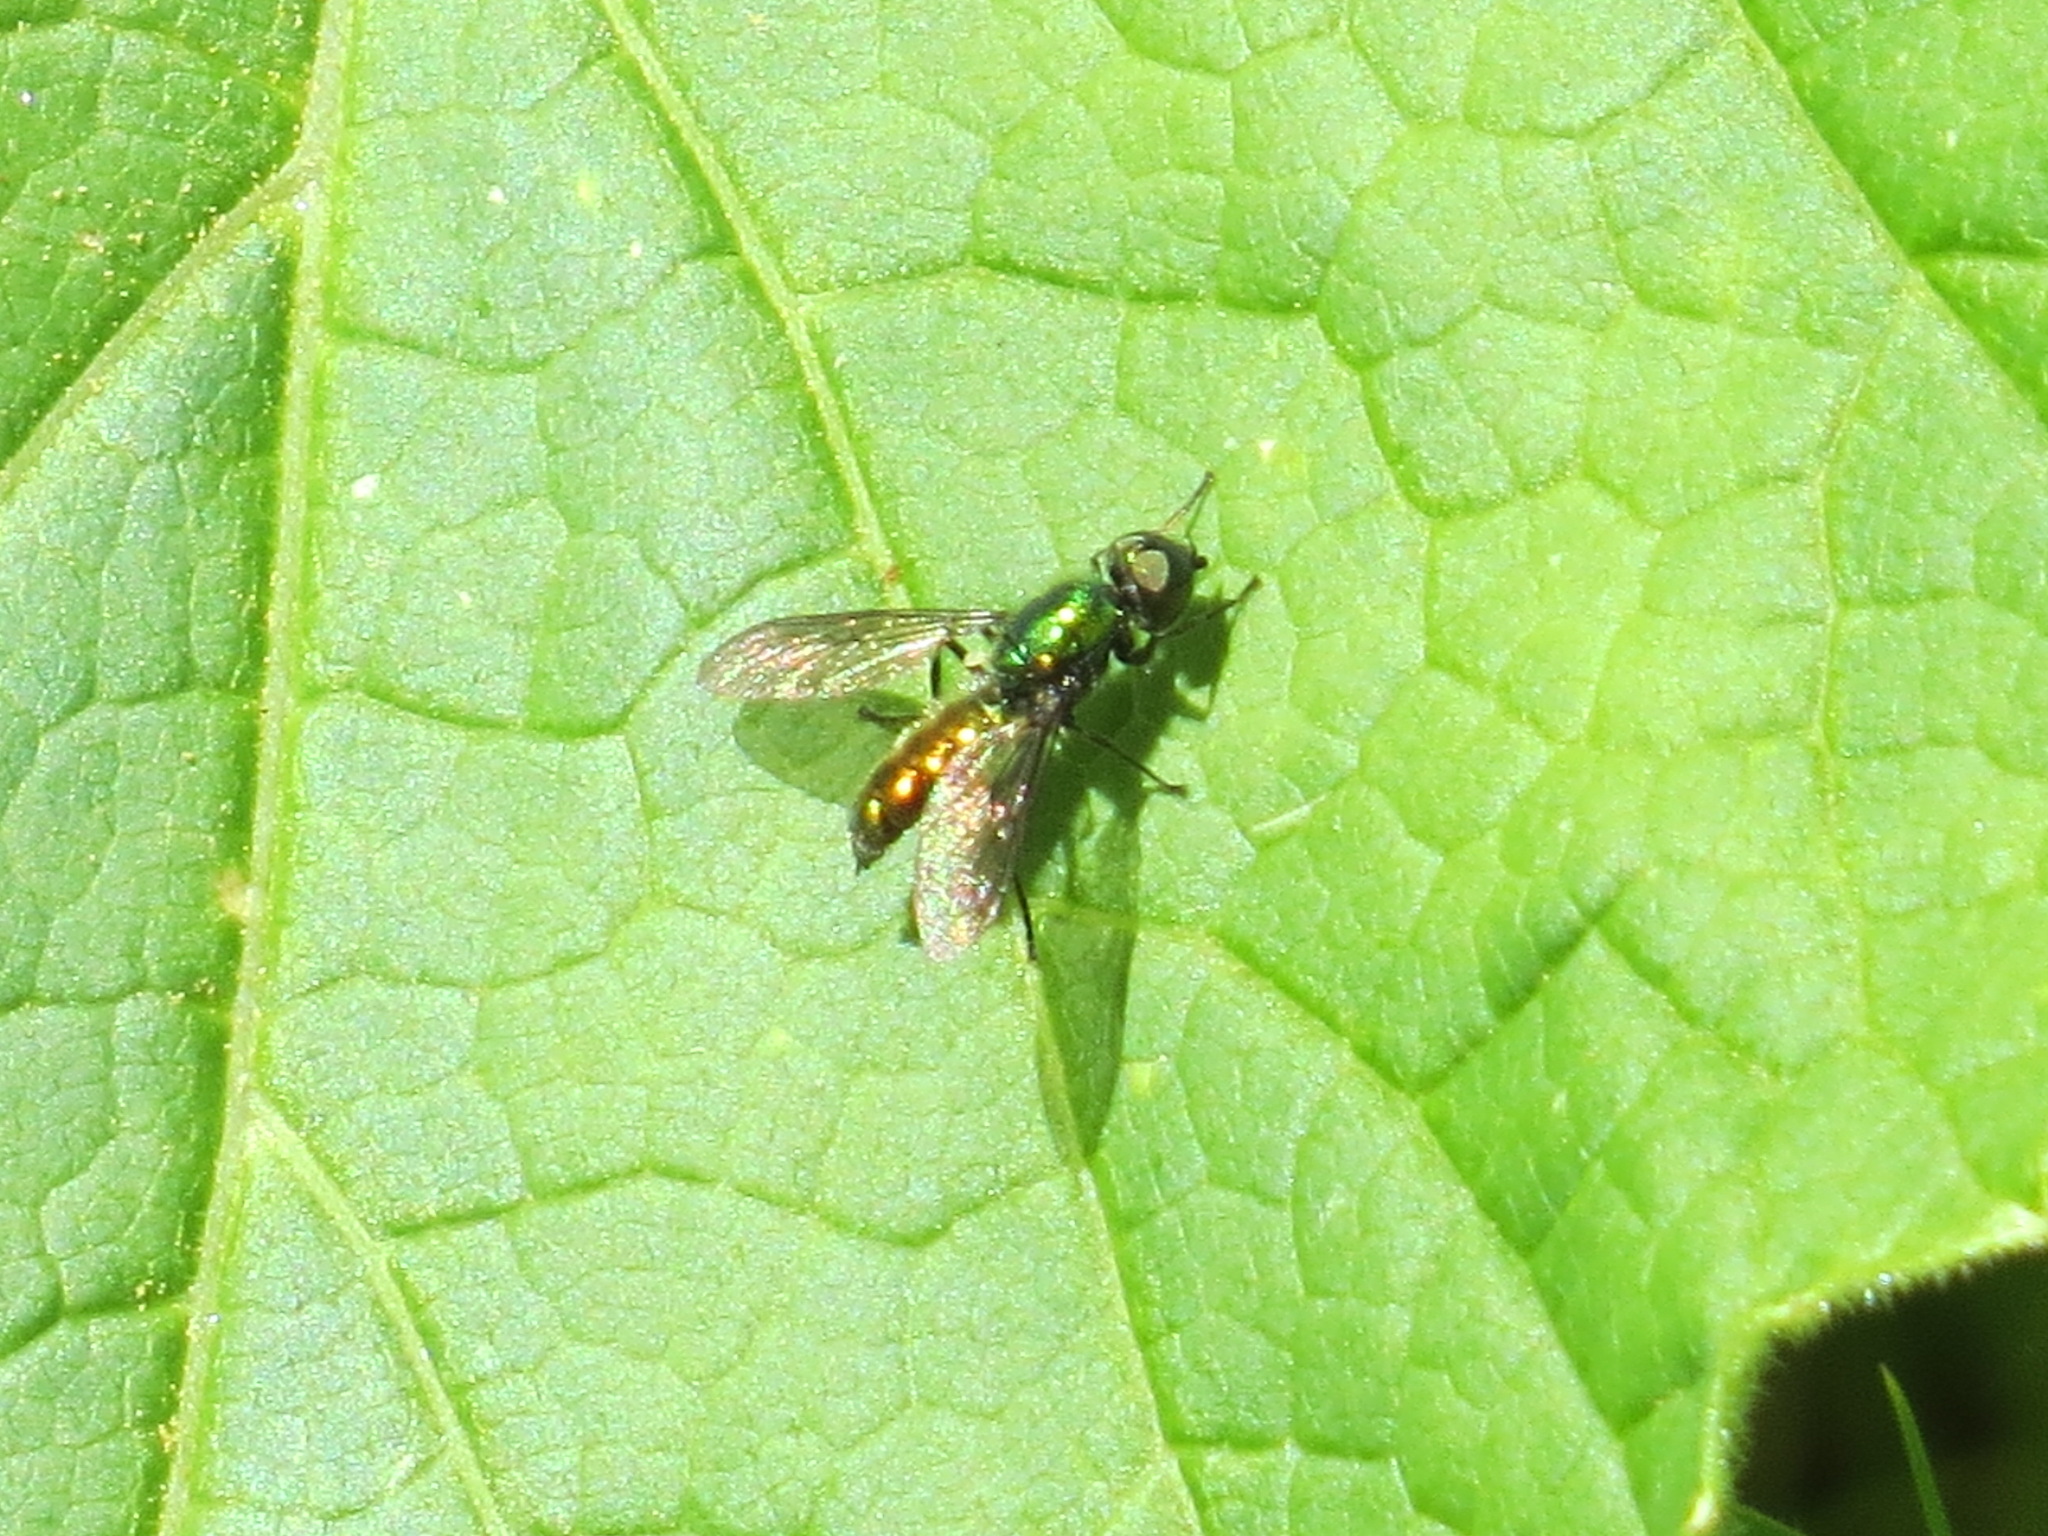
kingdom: Animalia
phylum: Arthropoda
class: Insecta
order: Diptera
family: Stratiomyidae
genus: Sargus
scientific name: Sargus viridis
